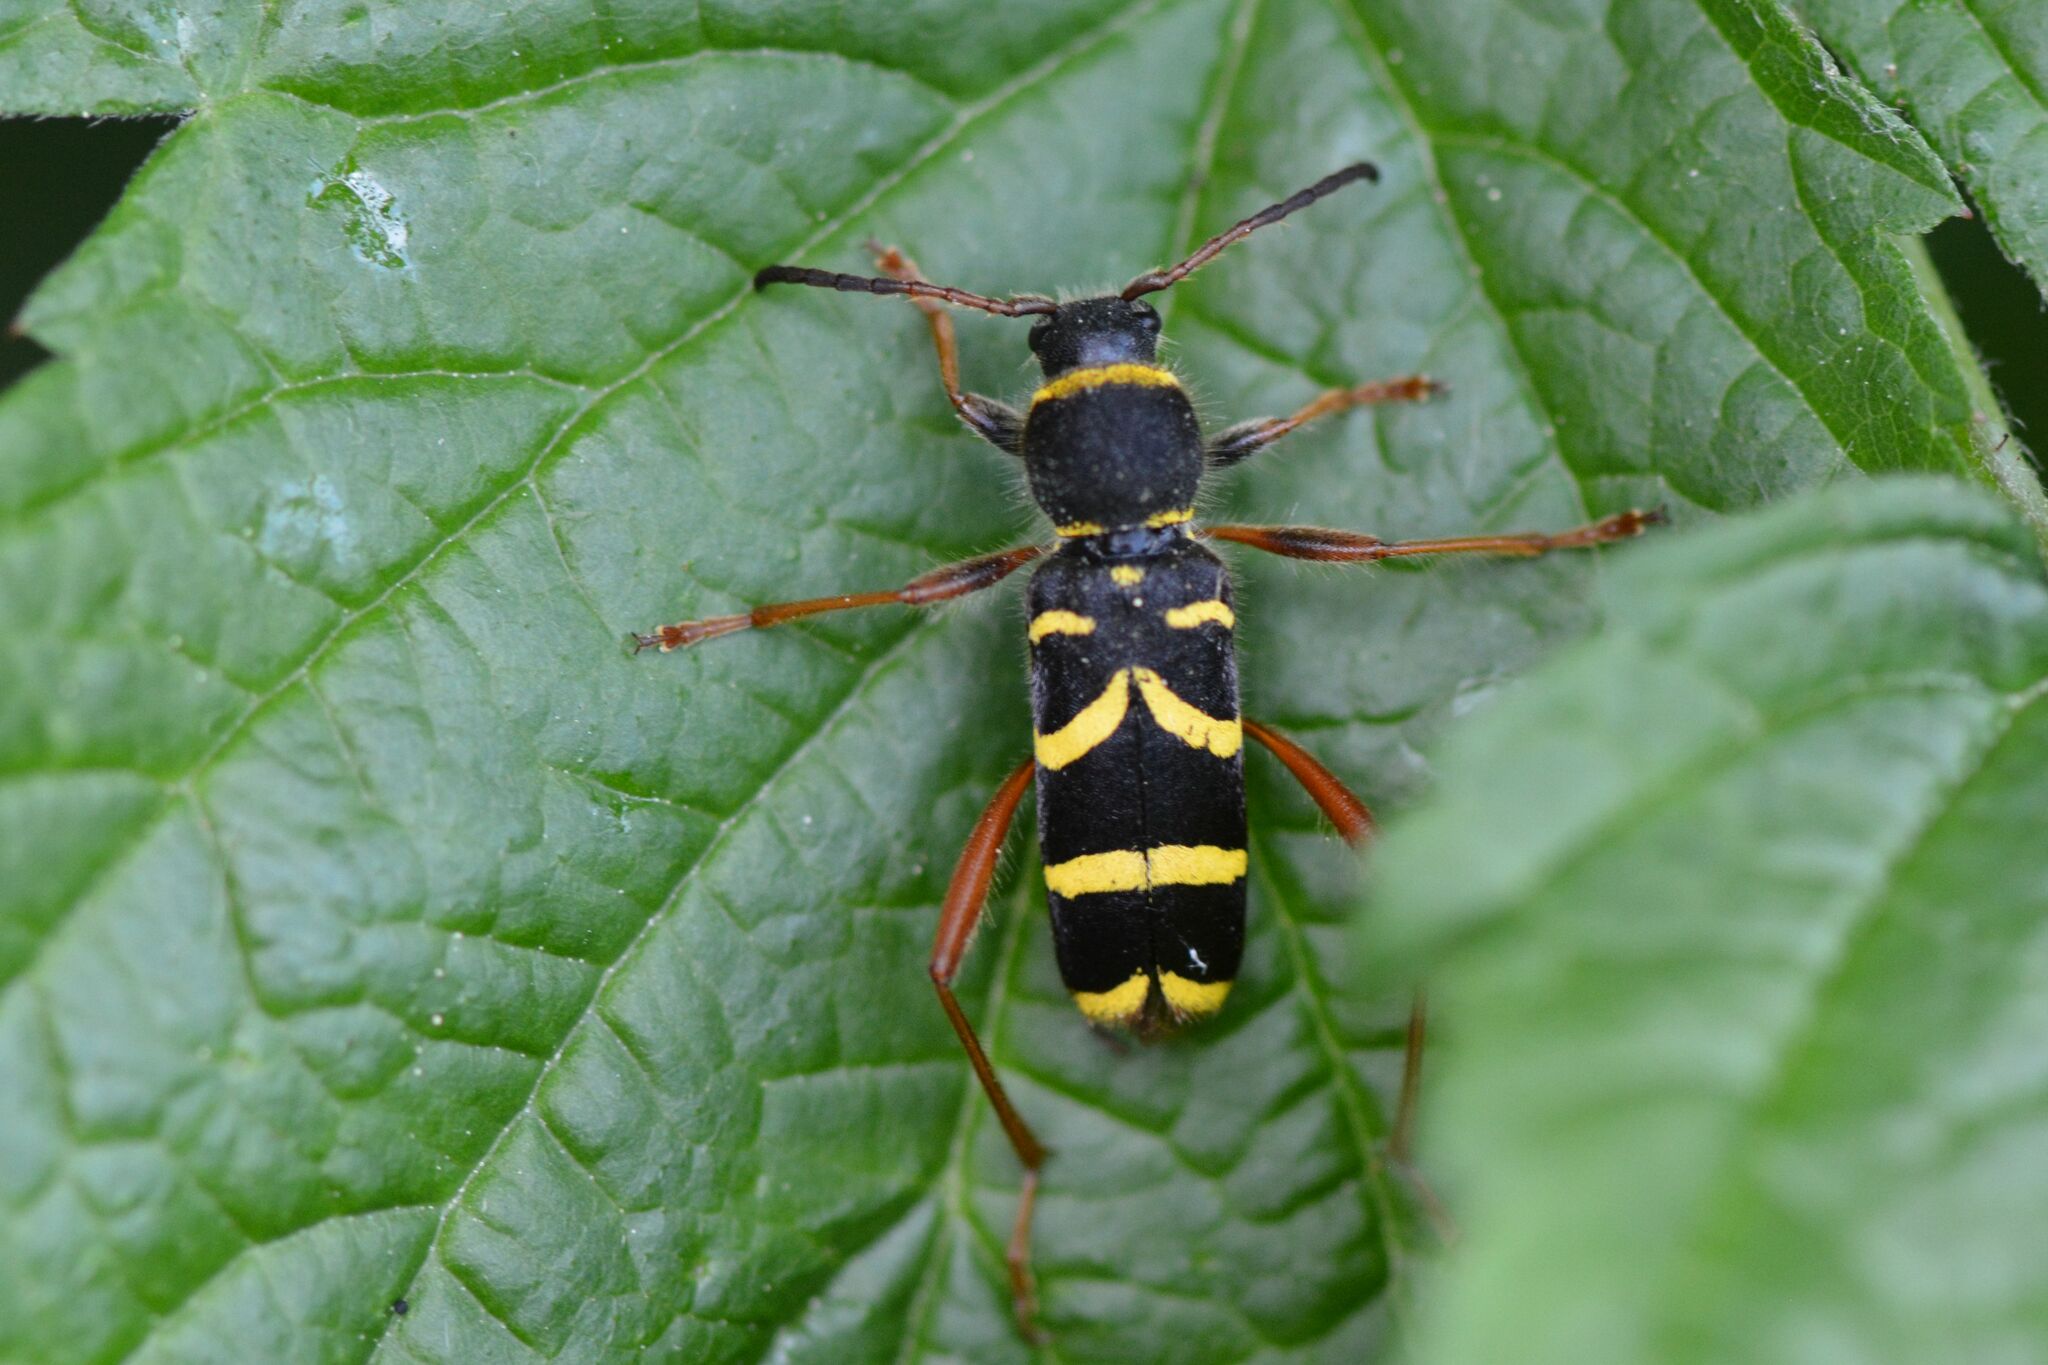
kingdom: Animalia
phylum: Arthropoda
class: Insecta
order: Coleoptera
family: Cerambycidae
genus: Clytus
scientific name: Clytus arietis
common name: Wasp beetle
